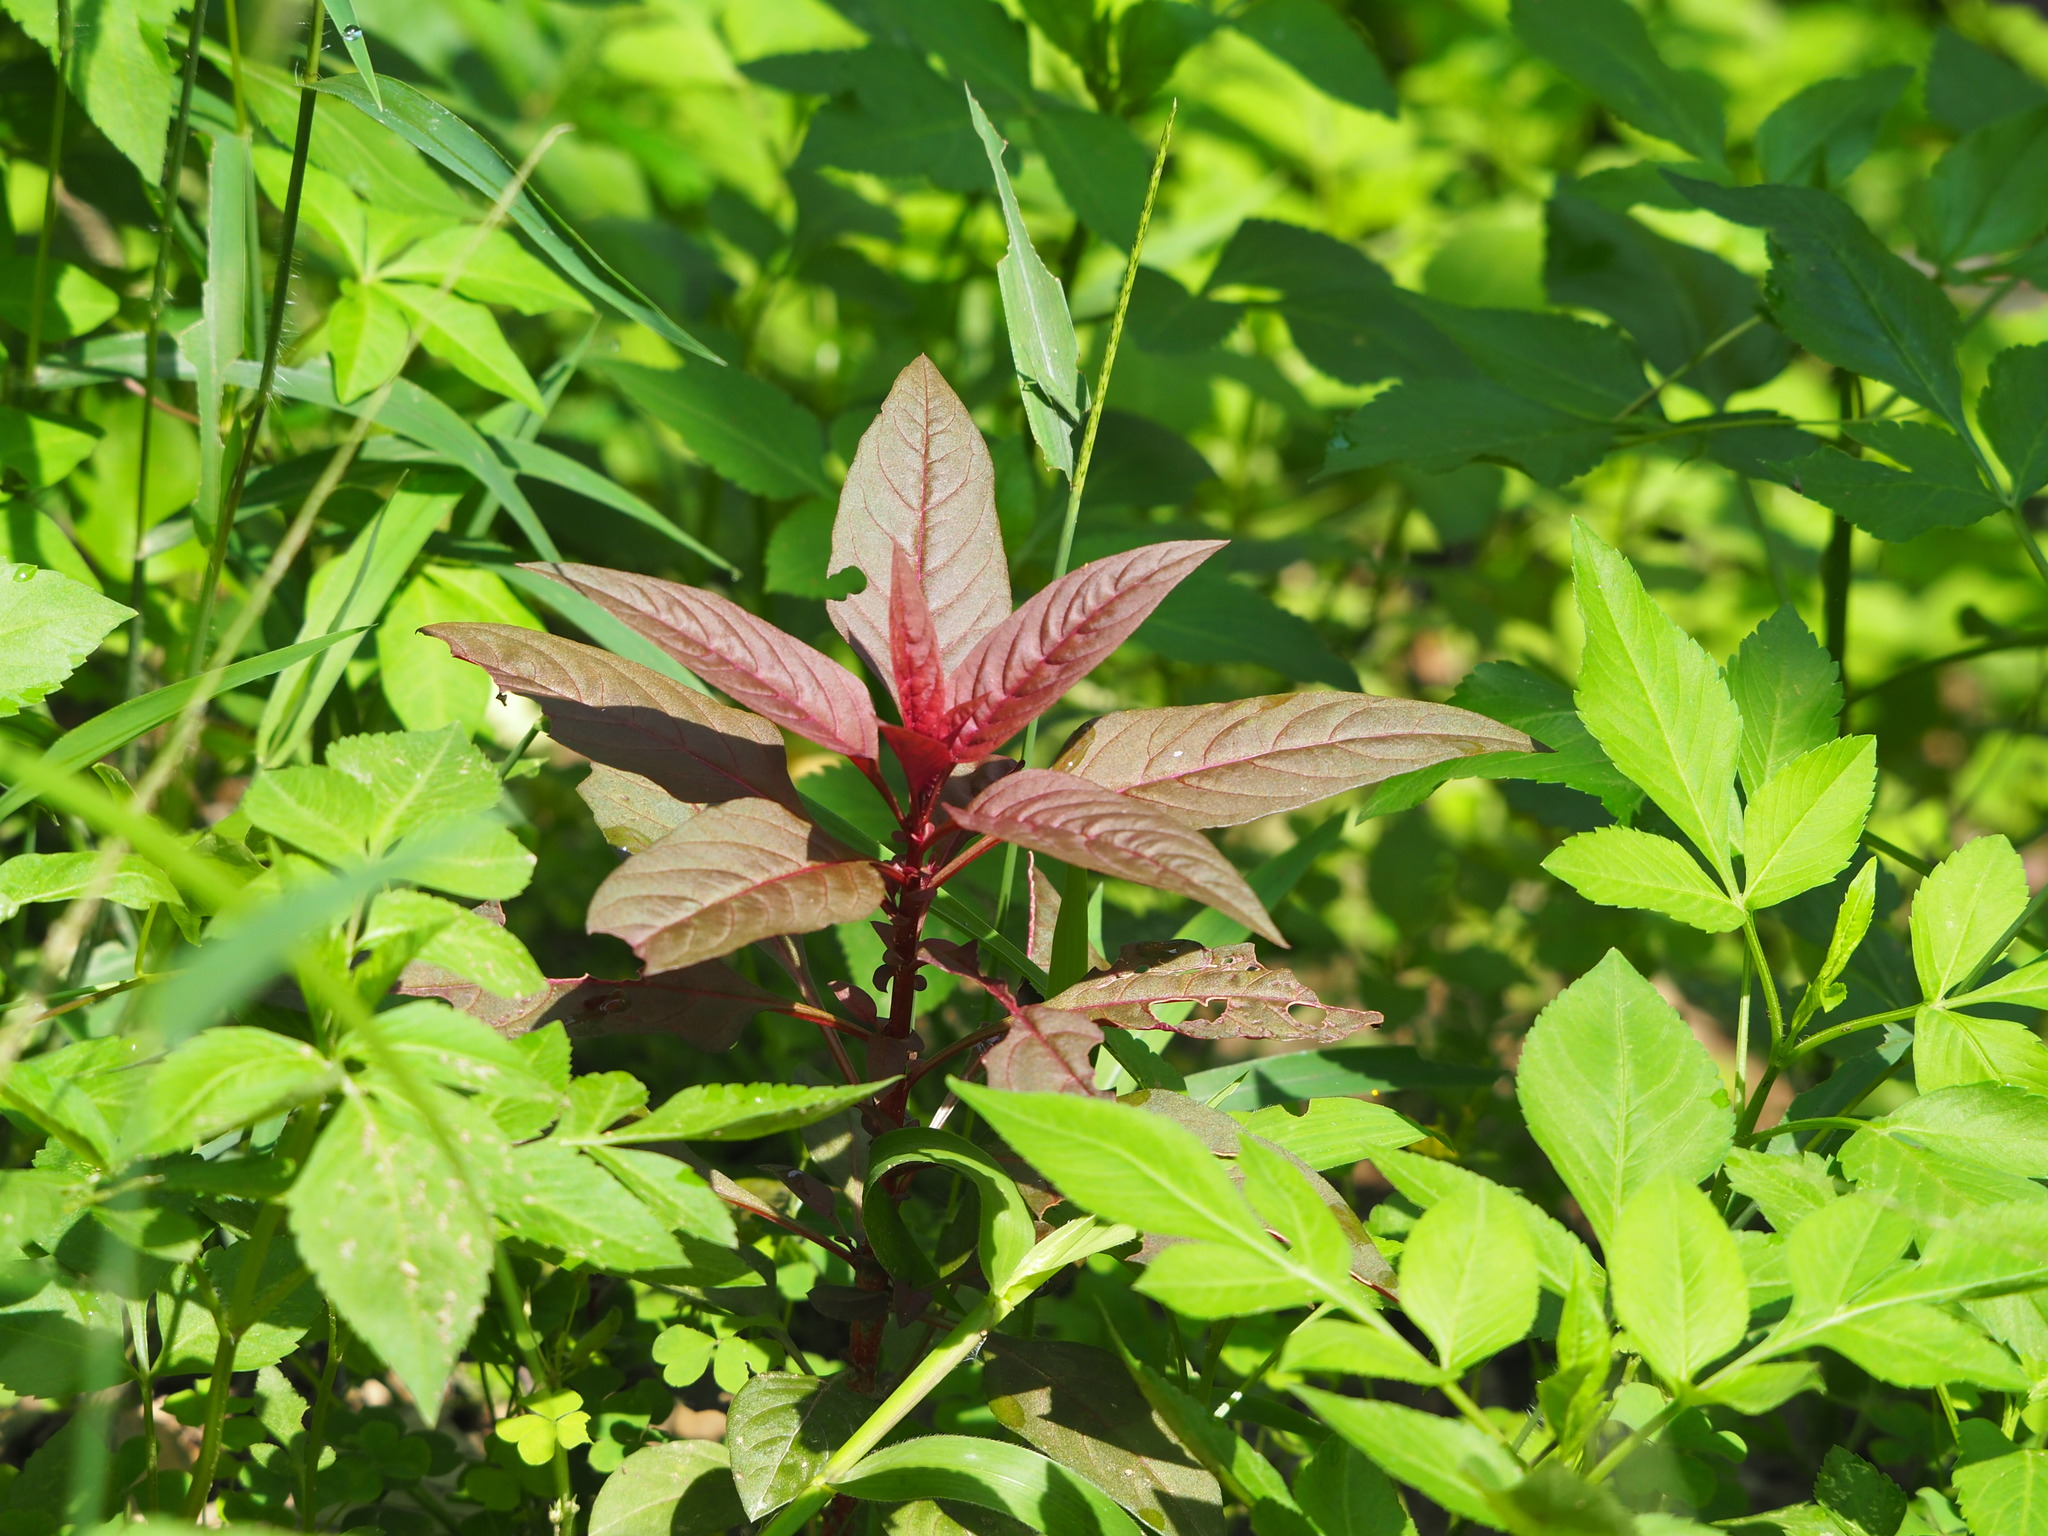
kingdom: Plantae
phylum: Tracheophyta
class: Magnoliopsida
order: Caryophyllales
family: Amaranthaceae
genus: Celosia
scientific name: Celosia argentea
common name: Feather cockscomb
